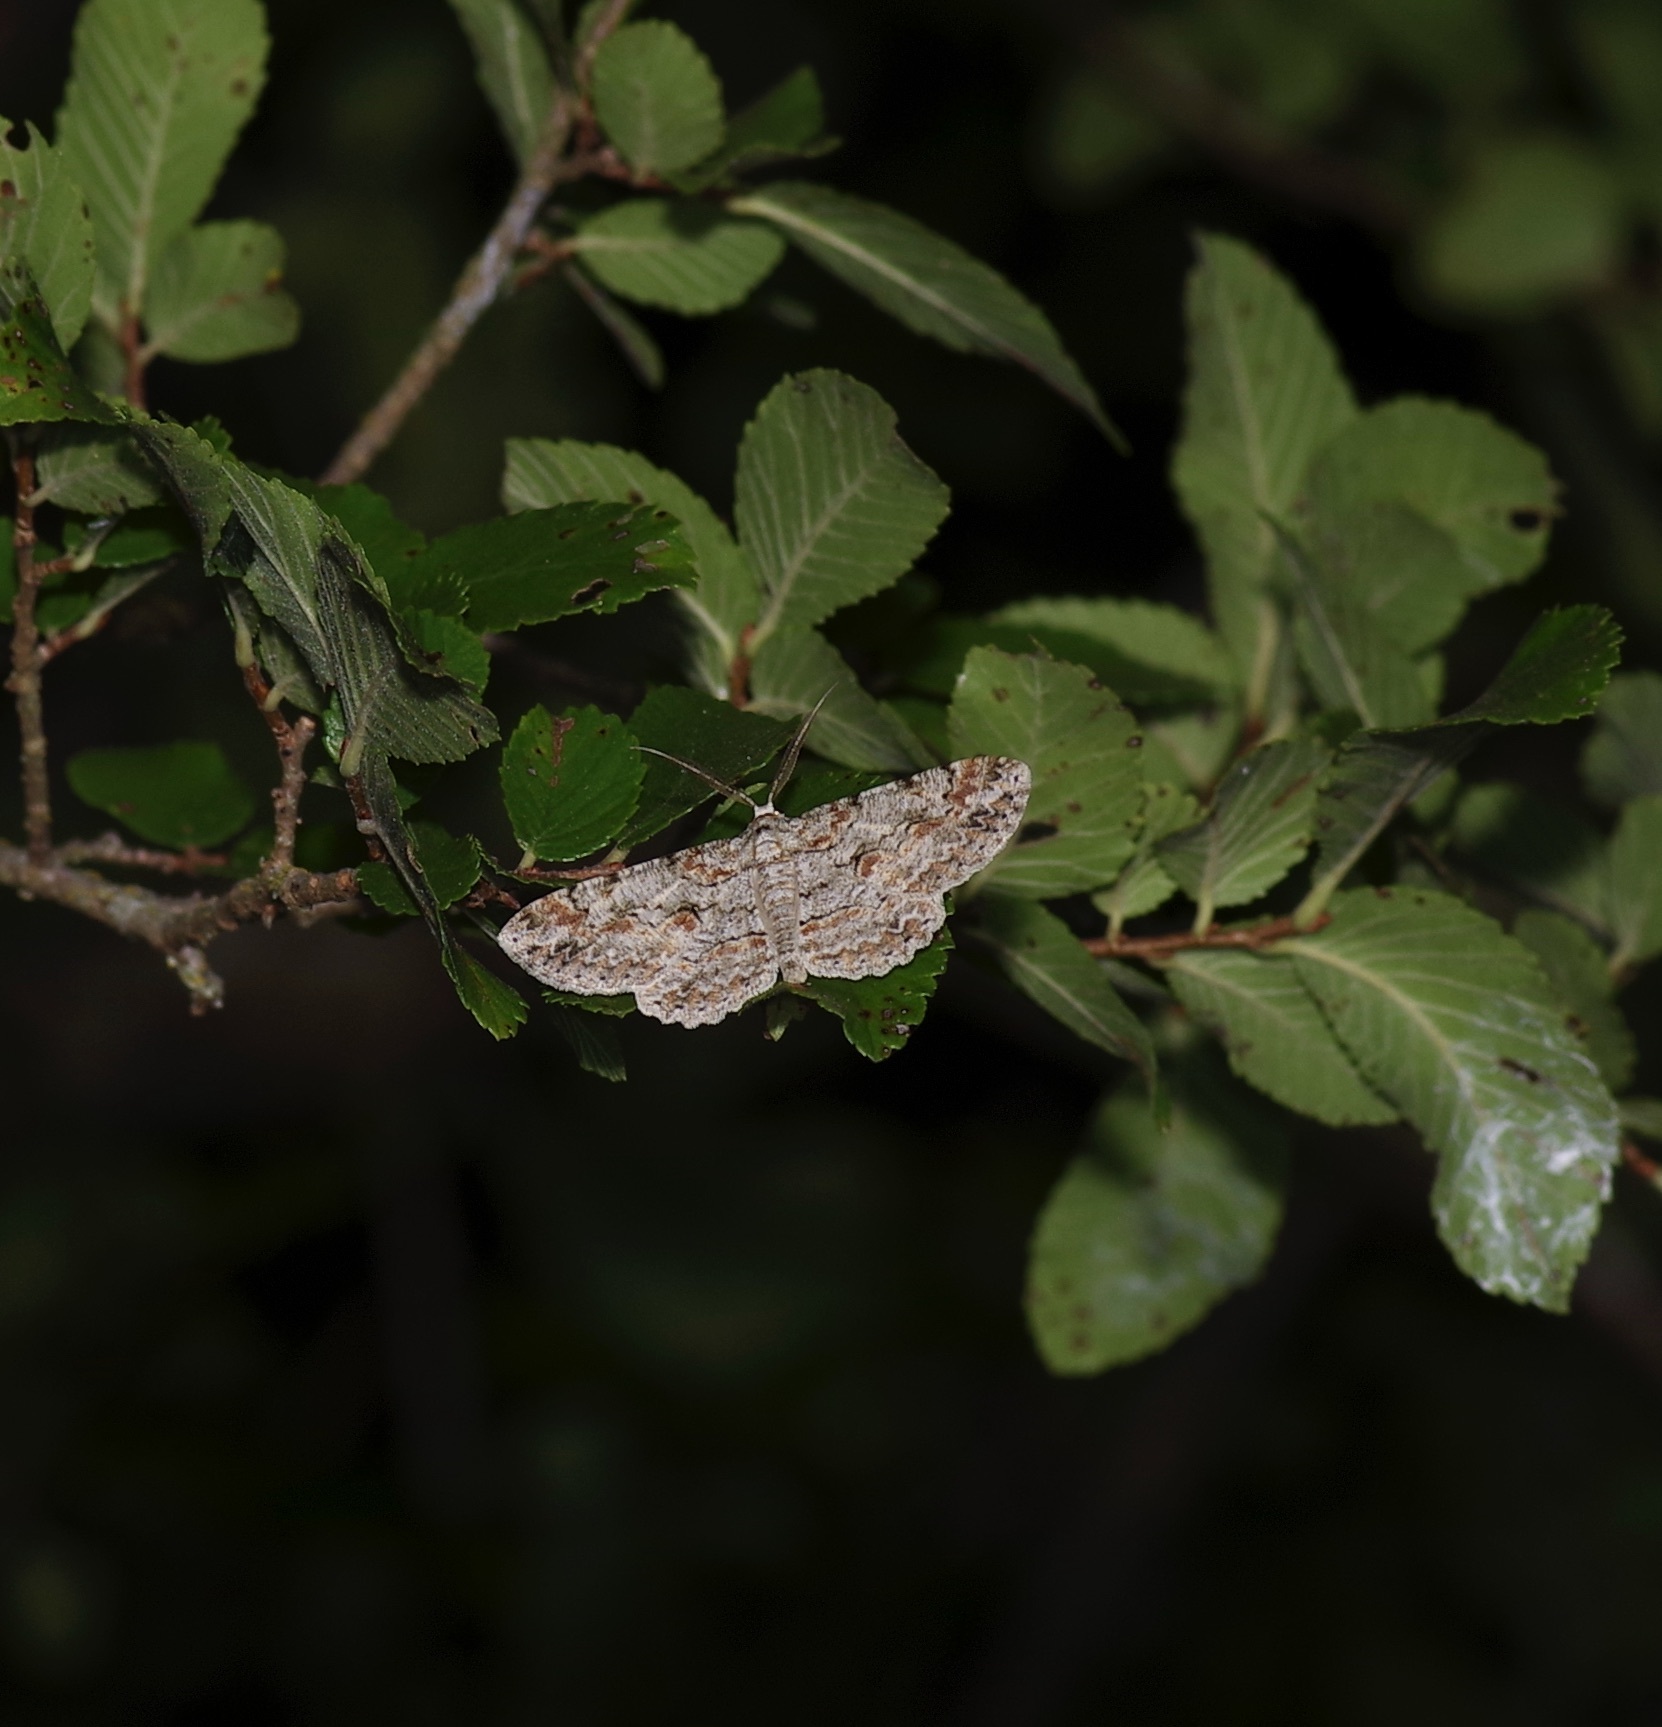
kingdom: Animalia
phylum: Arthropoda
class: Insecta
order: Lepidoptera
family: Geometridae
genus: Iridopsis
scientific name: Iridopsis defectaria
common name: Brown-shaded gray
